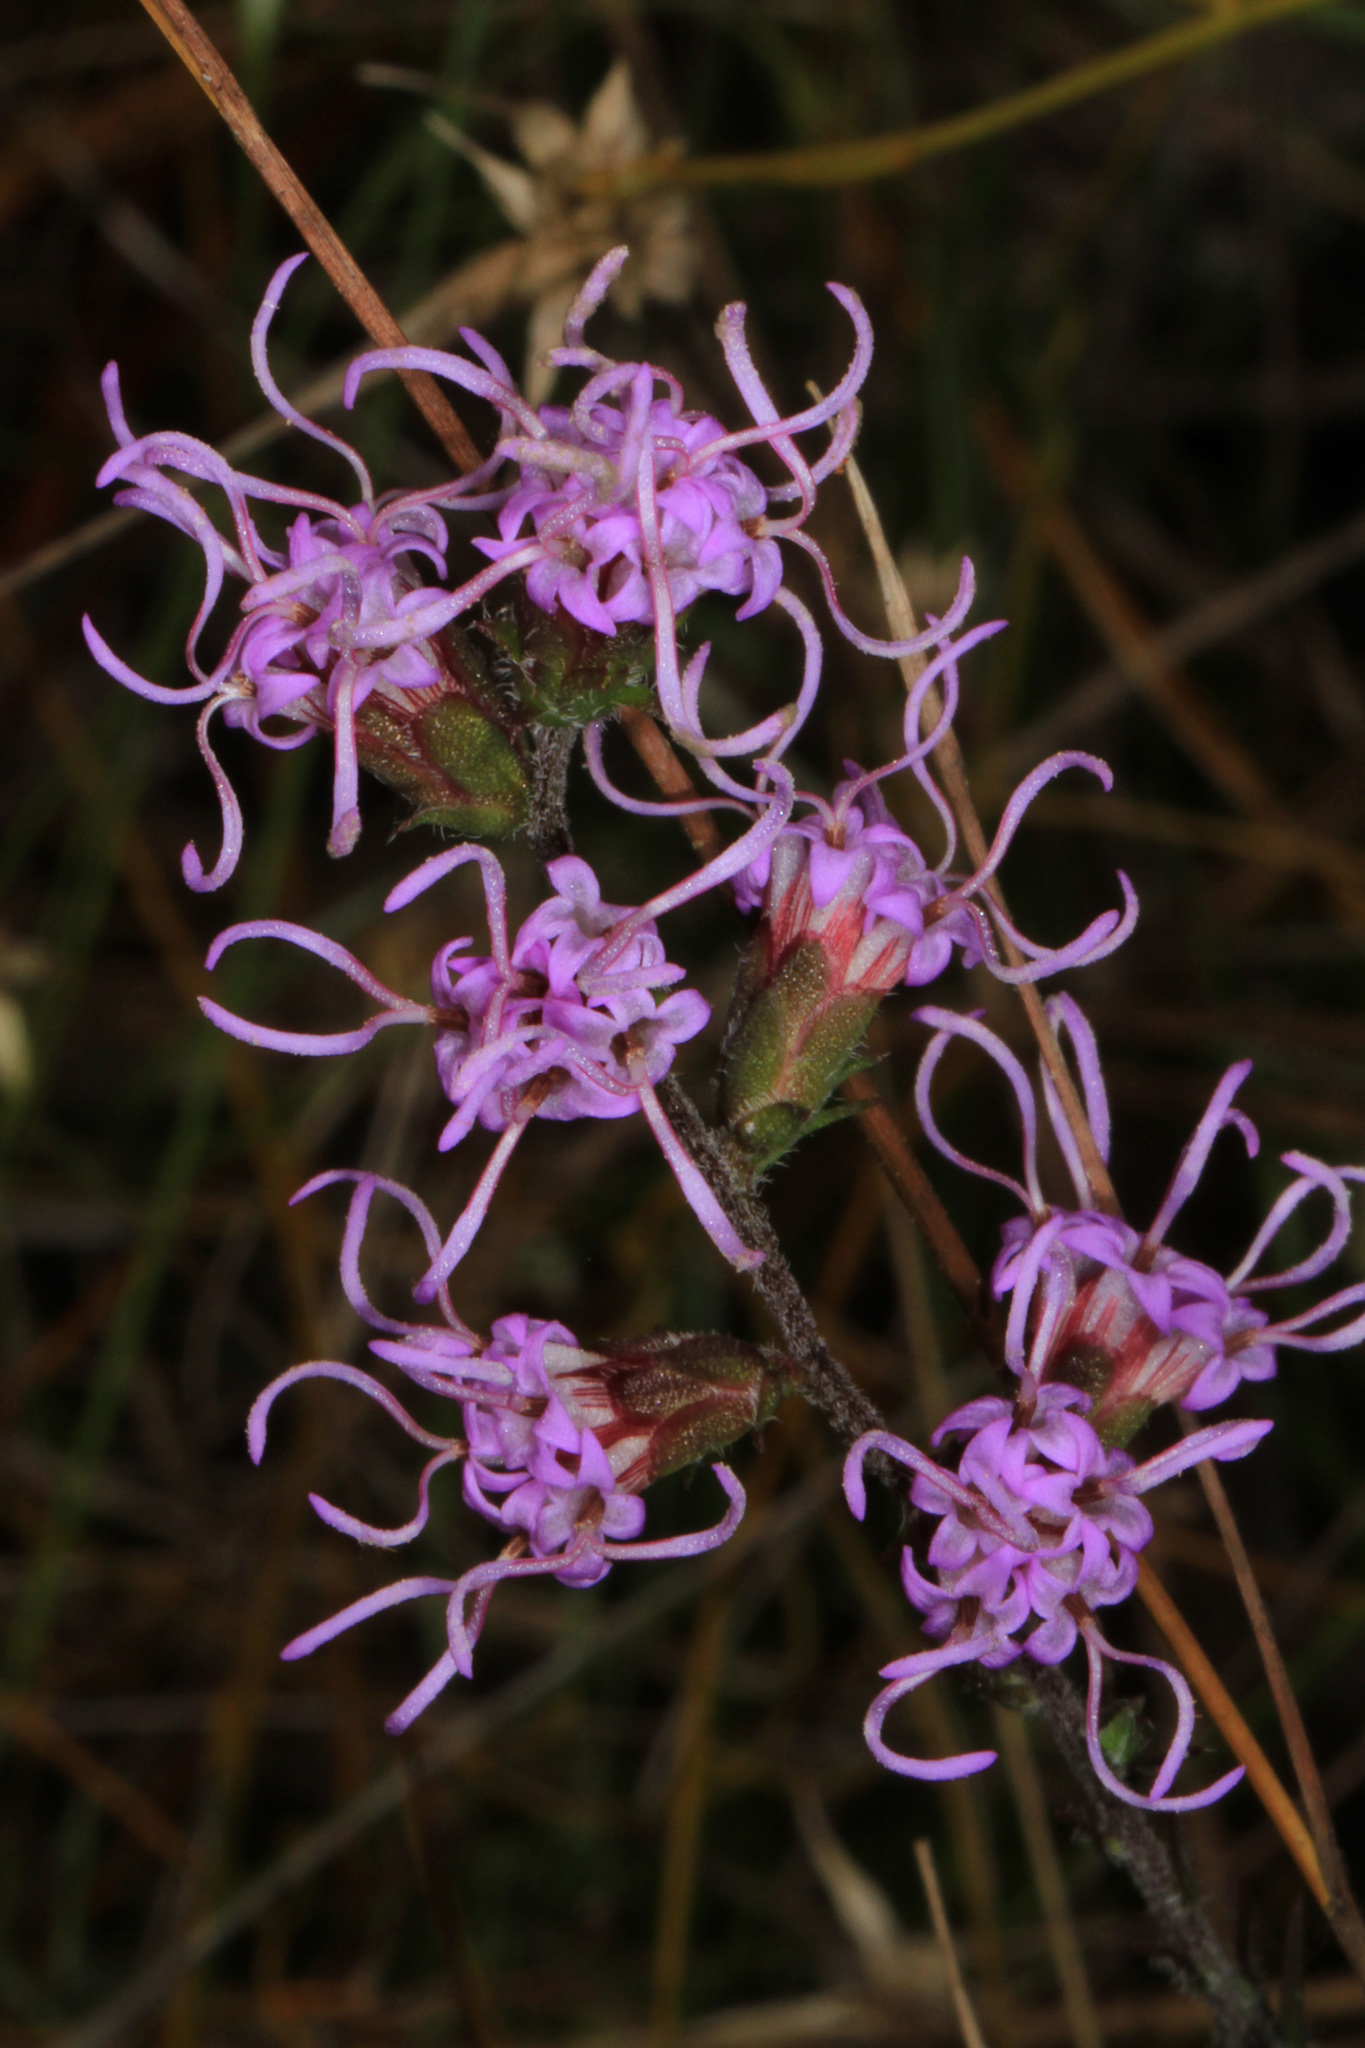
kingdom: Plantae
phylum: Tracheophyta
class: Magnoliopsida
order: Asterales
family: Asteraceae
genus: Liatris
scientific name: Liatris spicata
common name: Florist gayfeather
